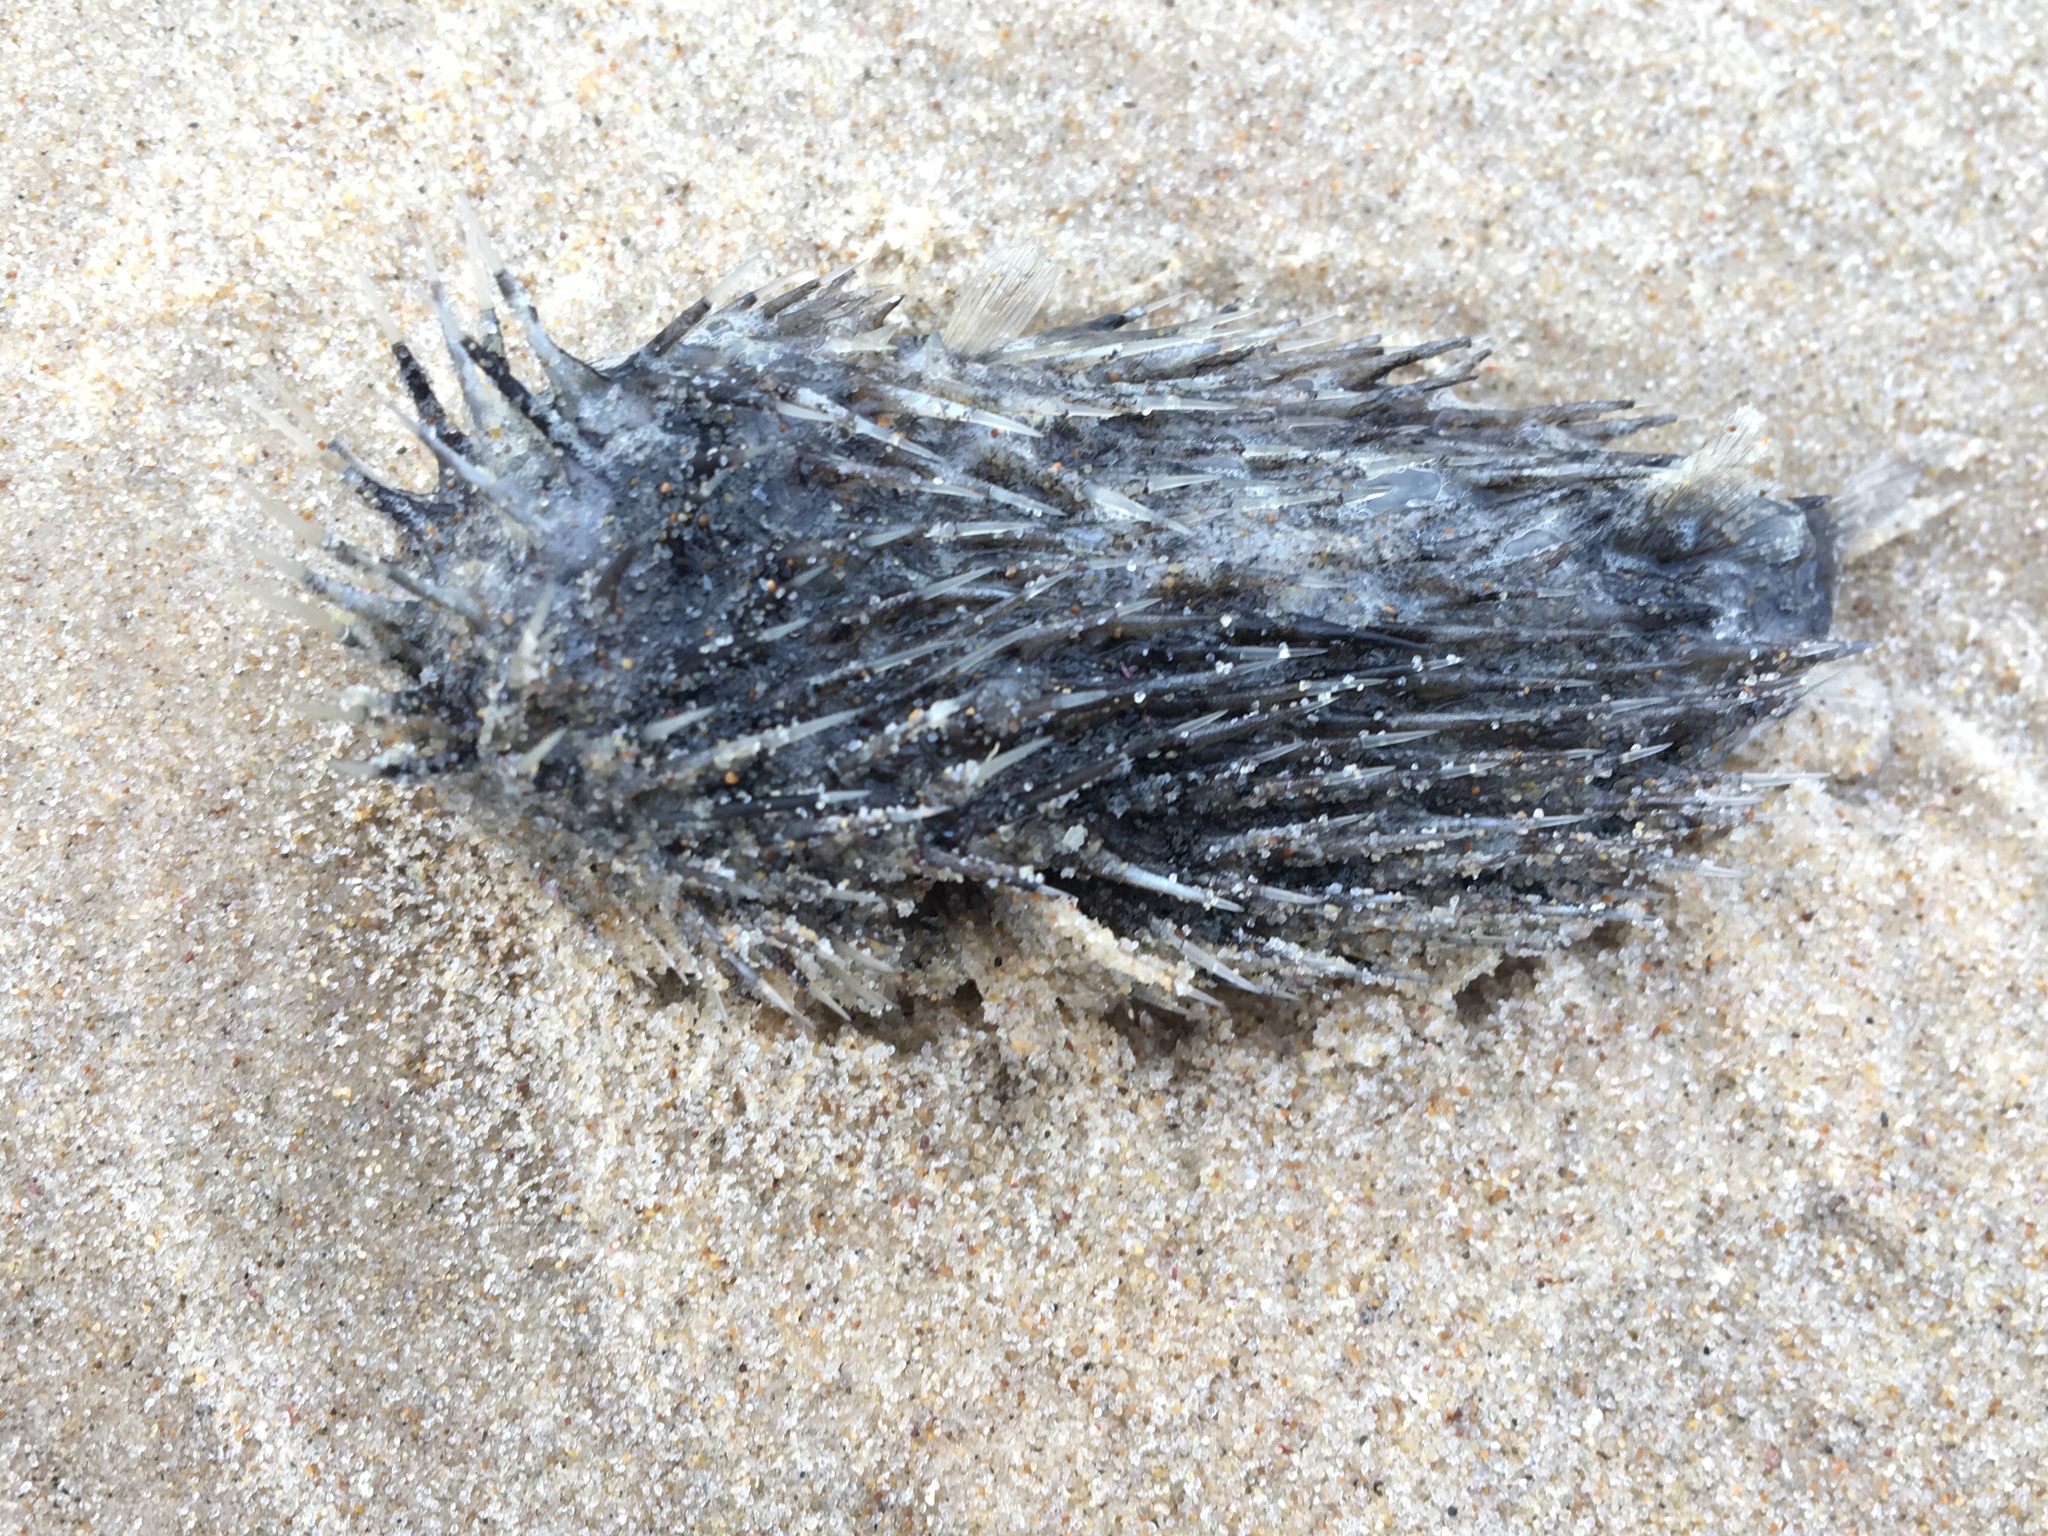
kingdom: Animalia
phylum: Chordata
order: Tetraodontiformes
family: Diodontidae
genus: Diodon
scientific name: Diodon holocanthus
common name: Balloonfish
